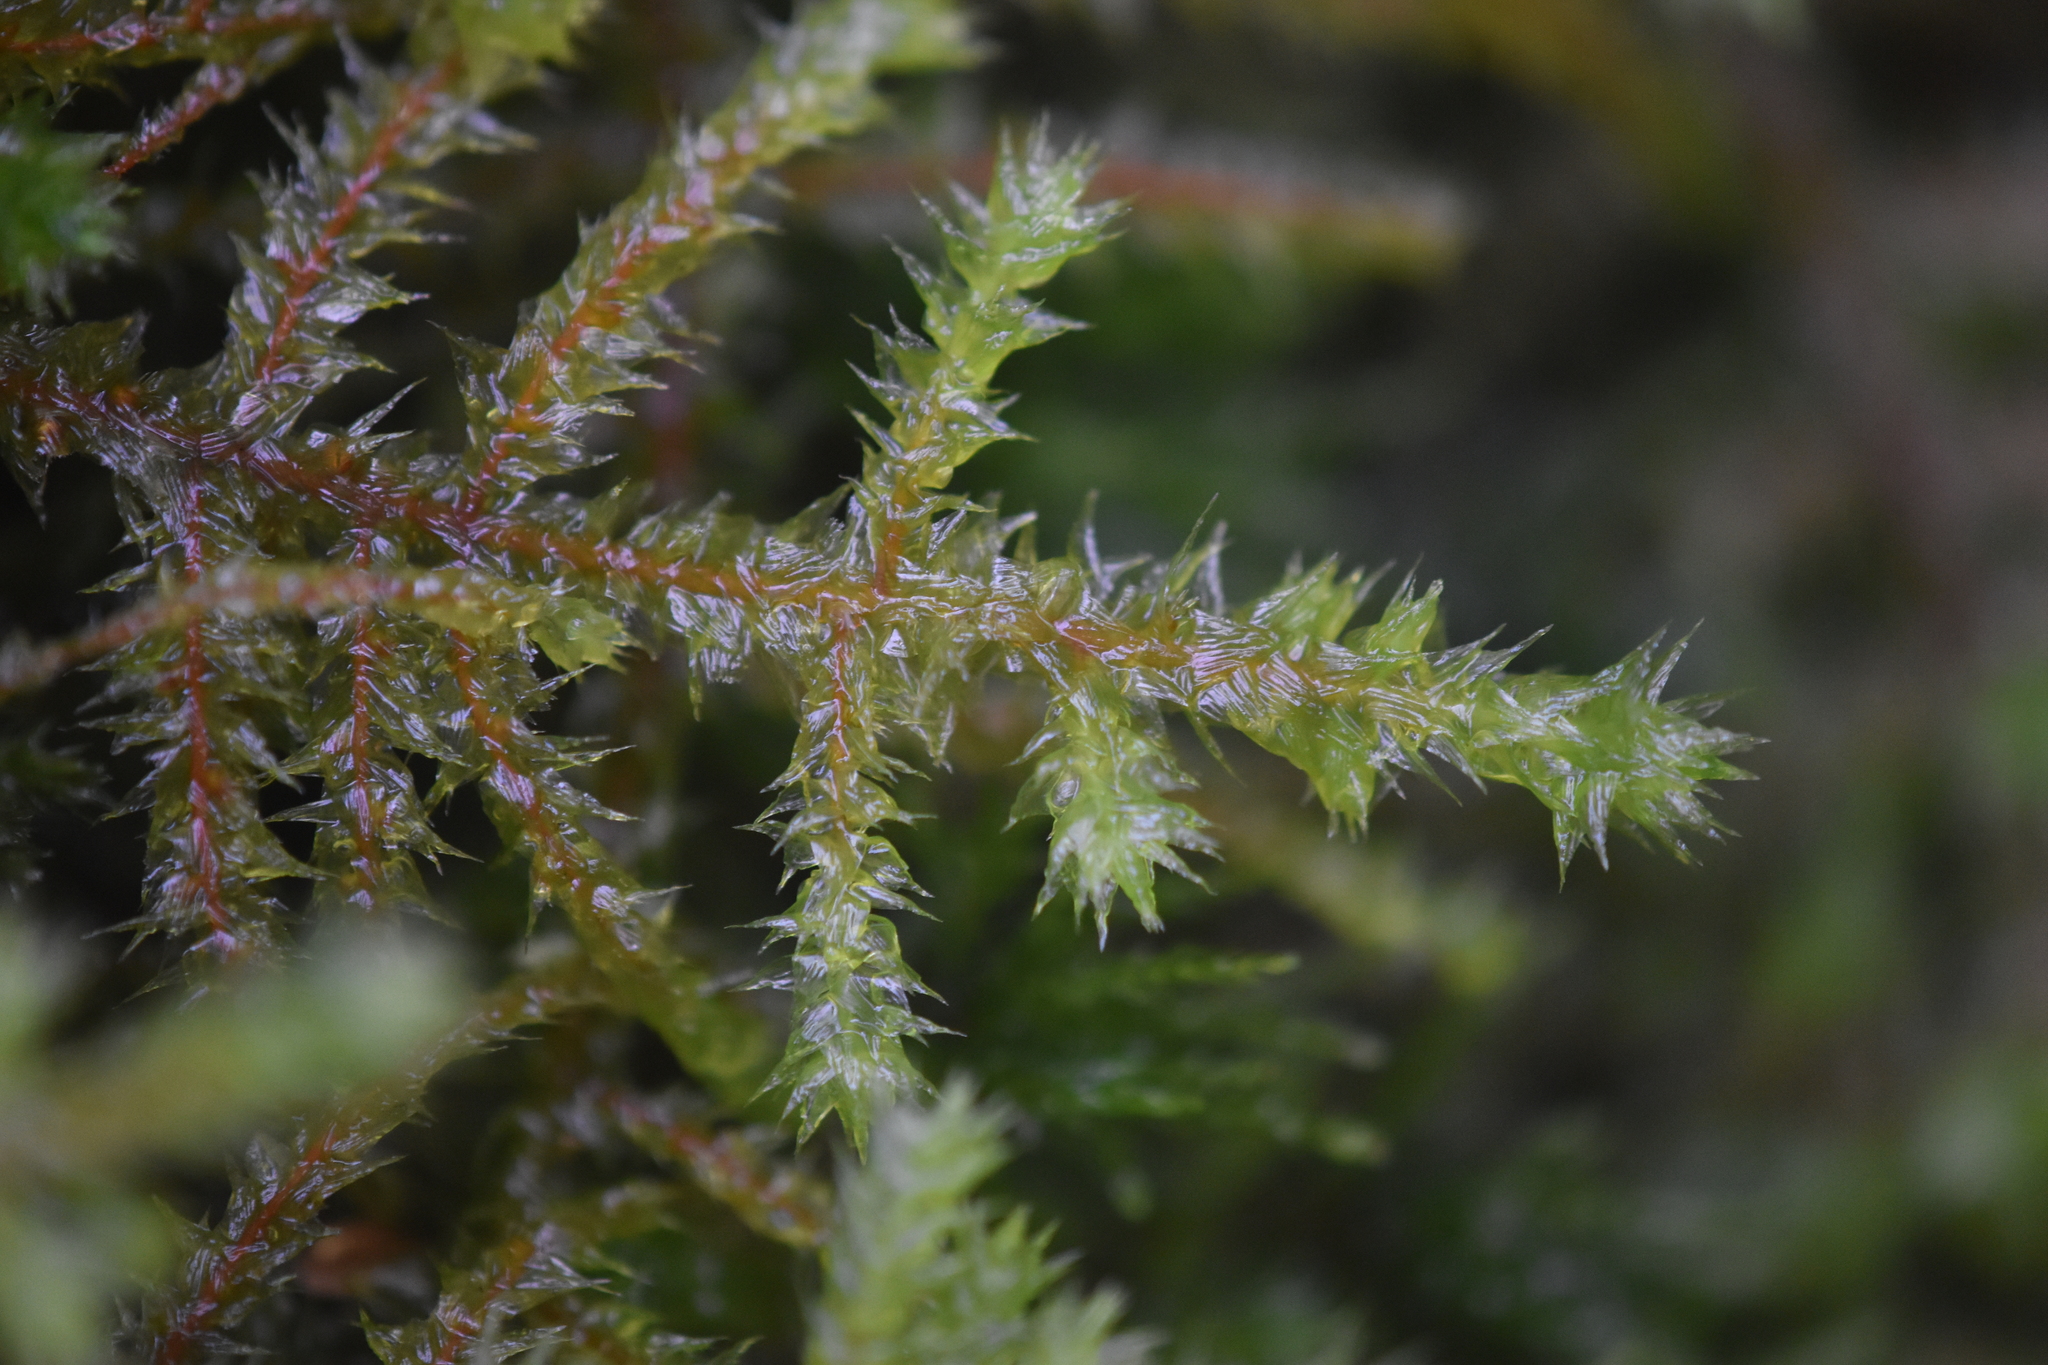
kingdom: Plantae
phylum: Bryophyta
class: Bryopsida
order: Hypnales
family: Hylocomiaceae
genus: Hylocomiadelphus
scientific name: Hylocomiadelphus triquetrus
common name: Rough goose neck moss
